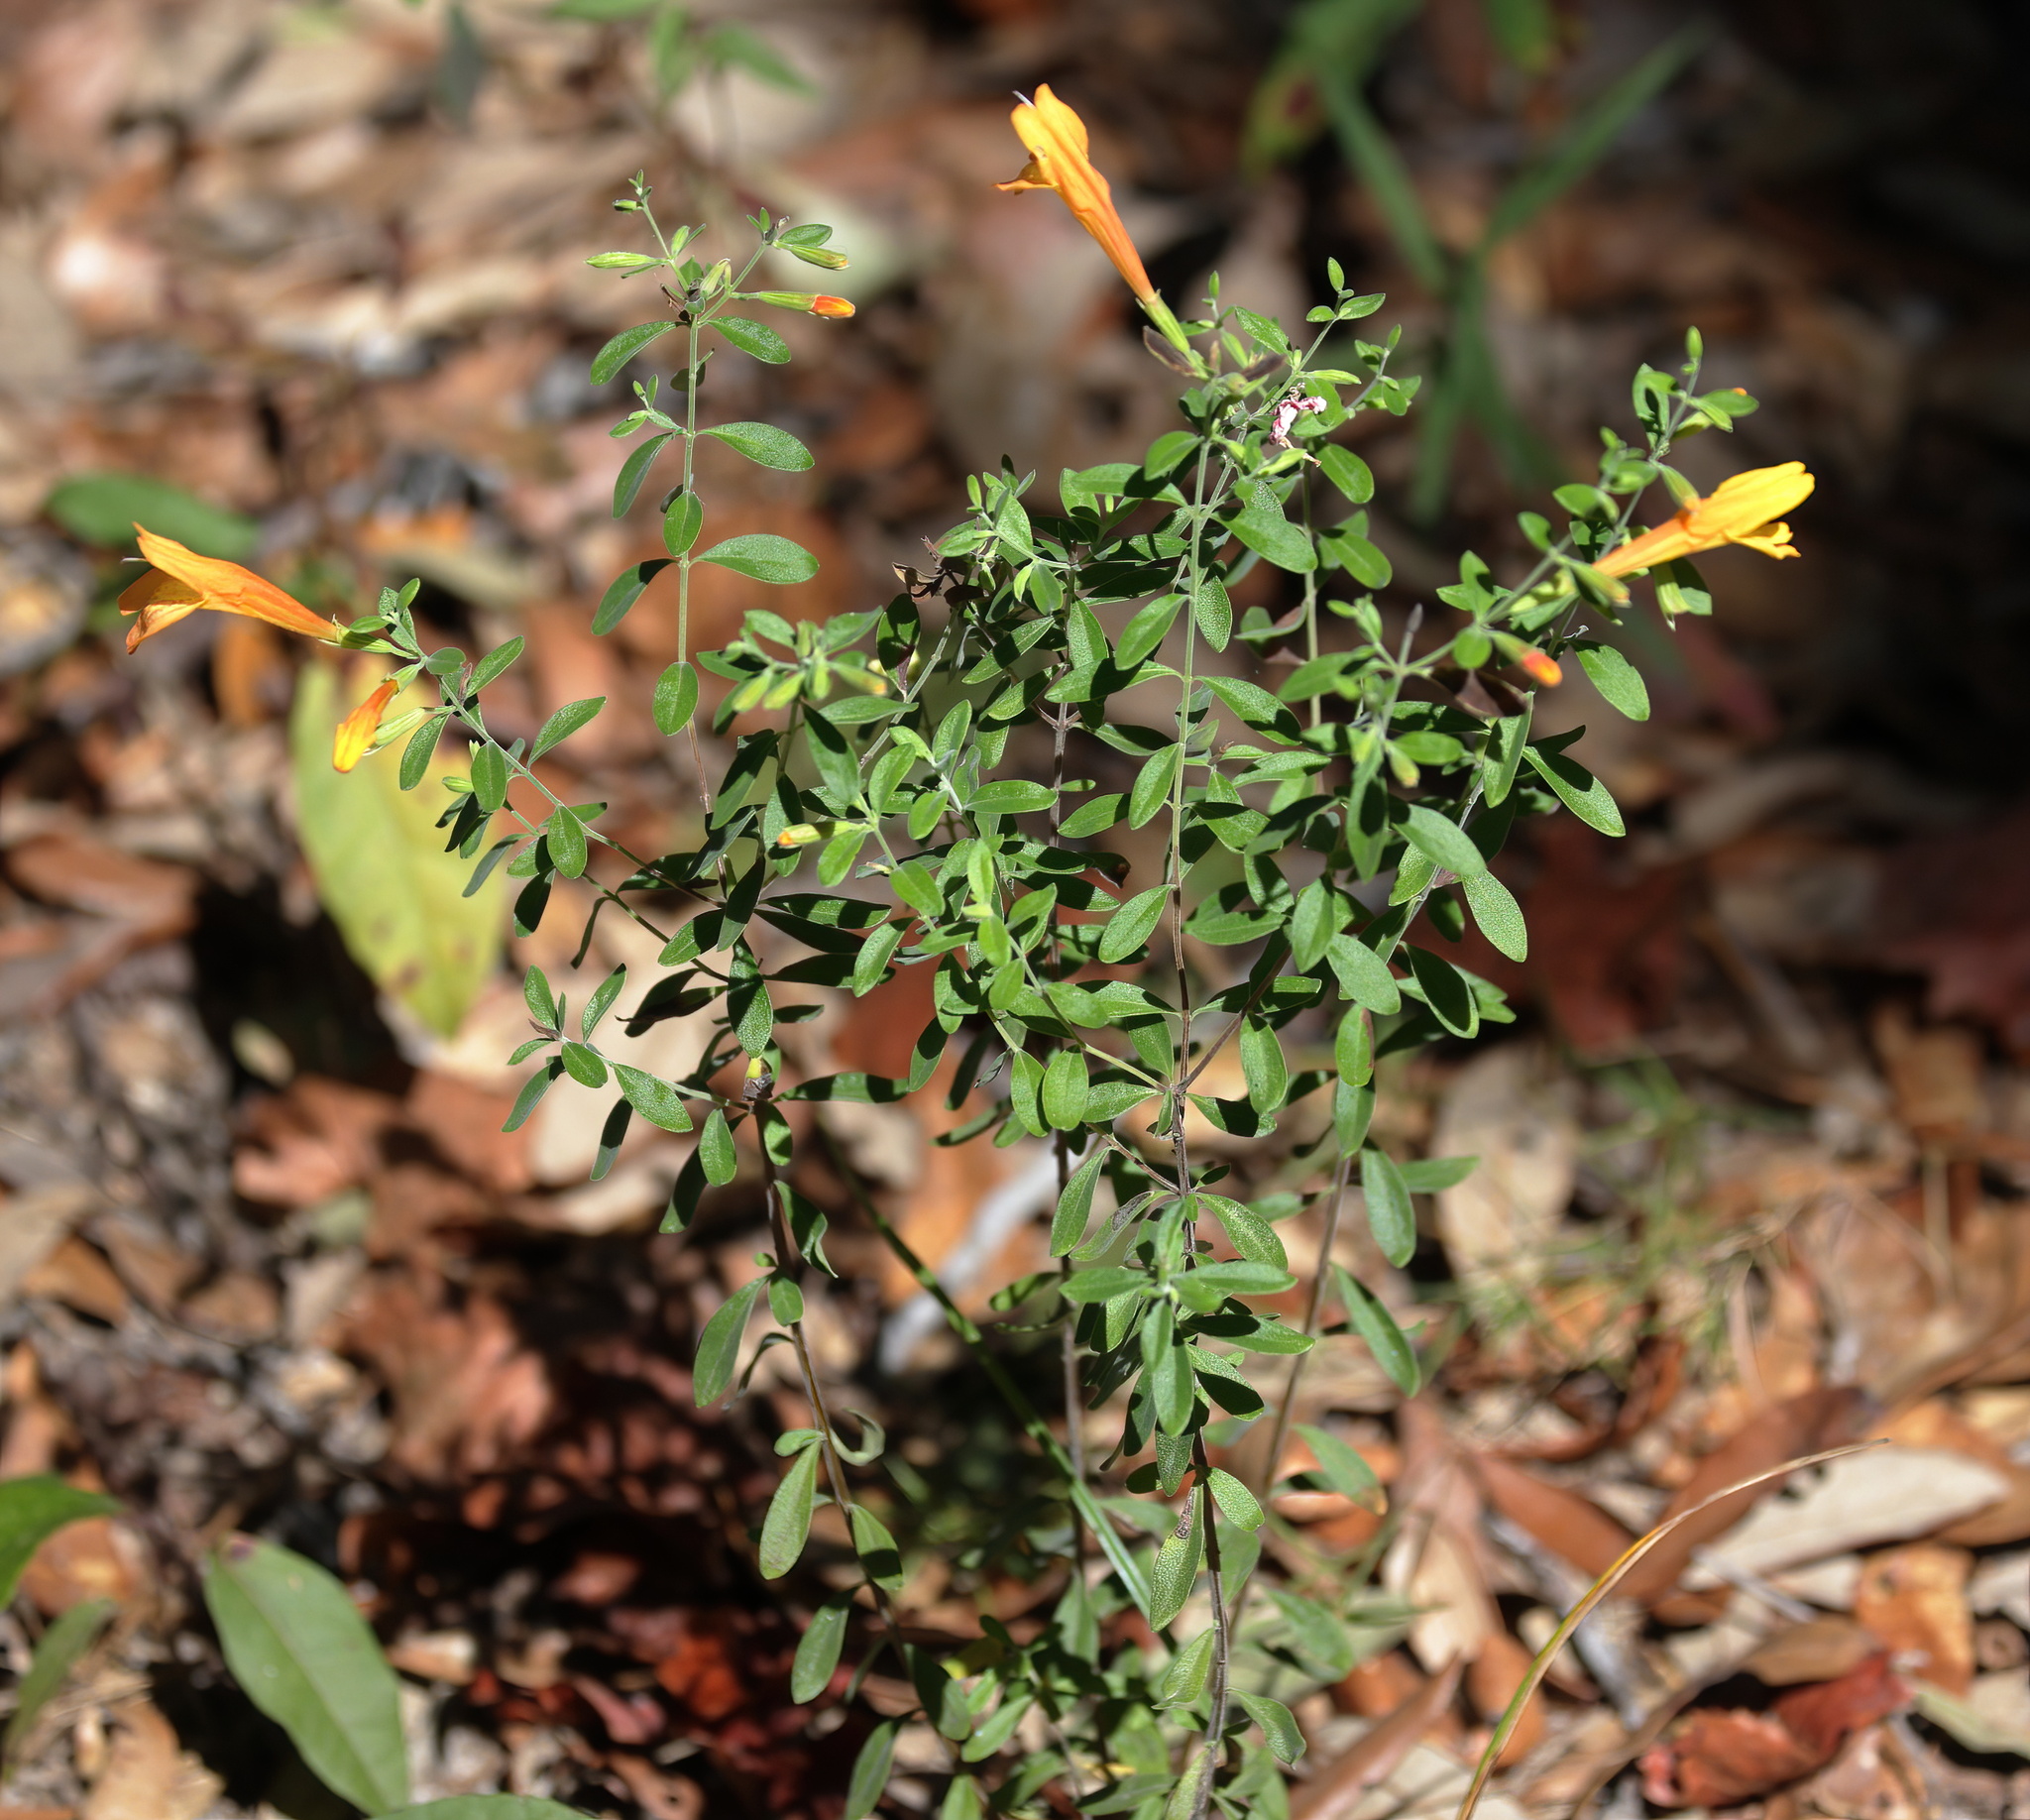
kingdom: Plantae
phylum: Tracheophyta
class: Magnoliopsida
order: Lamiales
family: Lamiaceae
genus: Clinopodium
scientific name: Clinopodium coccineum
